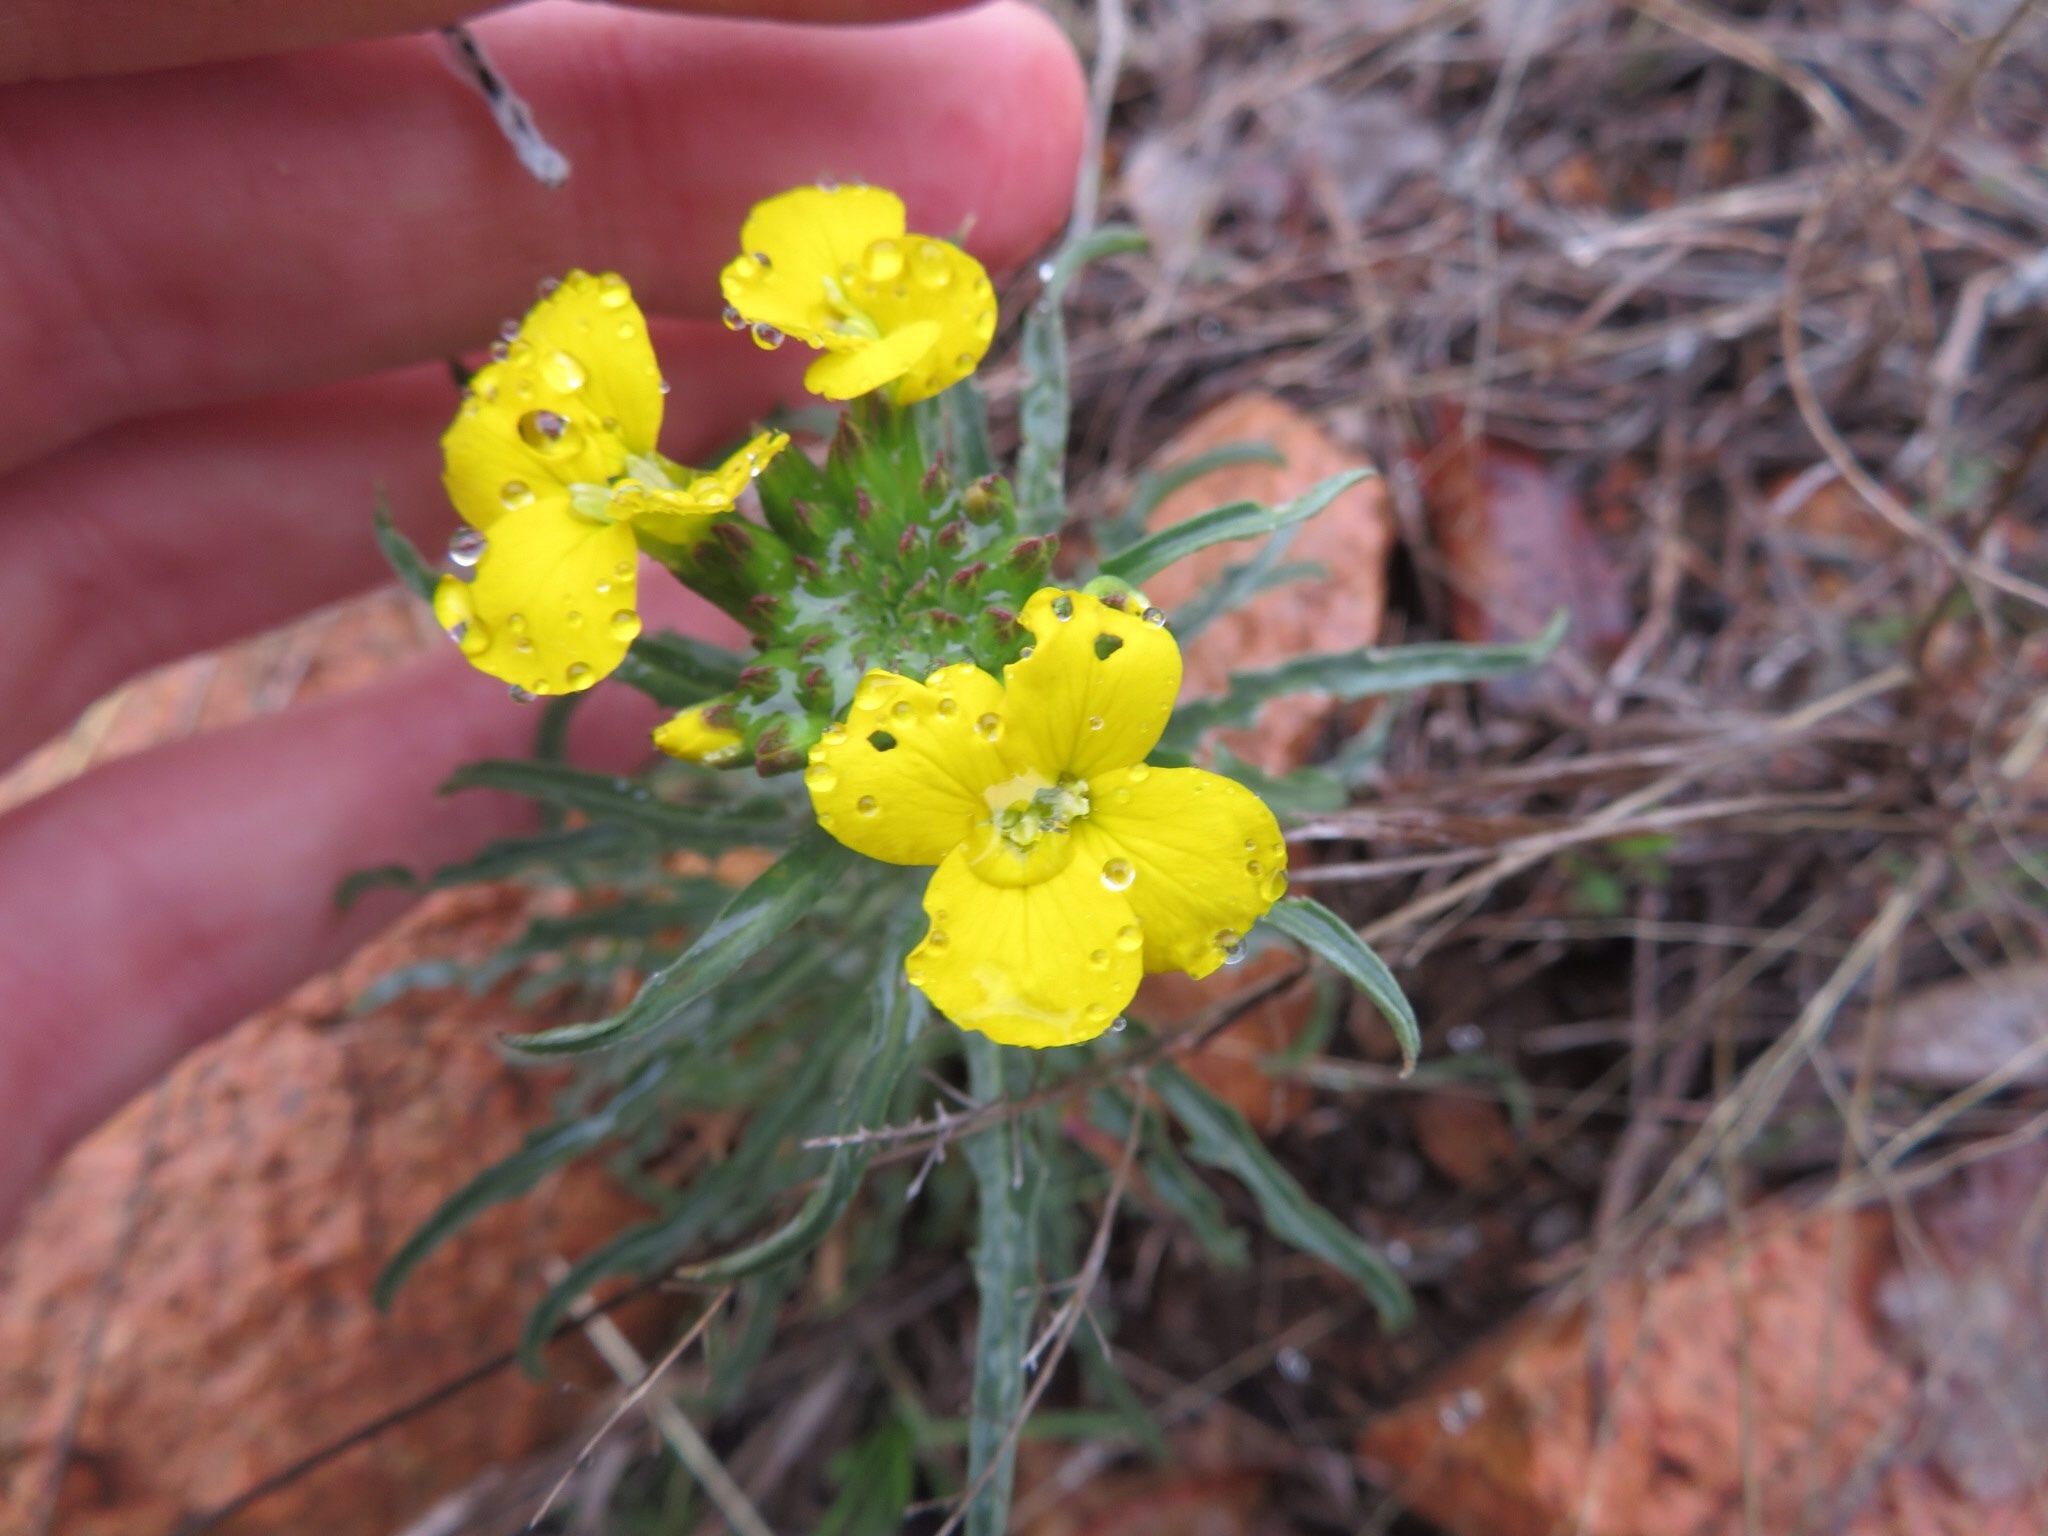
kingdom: Plantae
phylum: Tracheophyta
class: Magnoliopsida
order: Myrtales
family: Onagraceae
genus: Oenothera
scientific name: Oenothera
